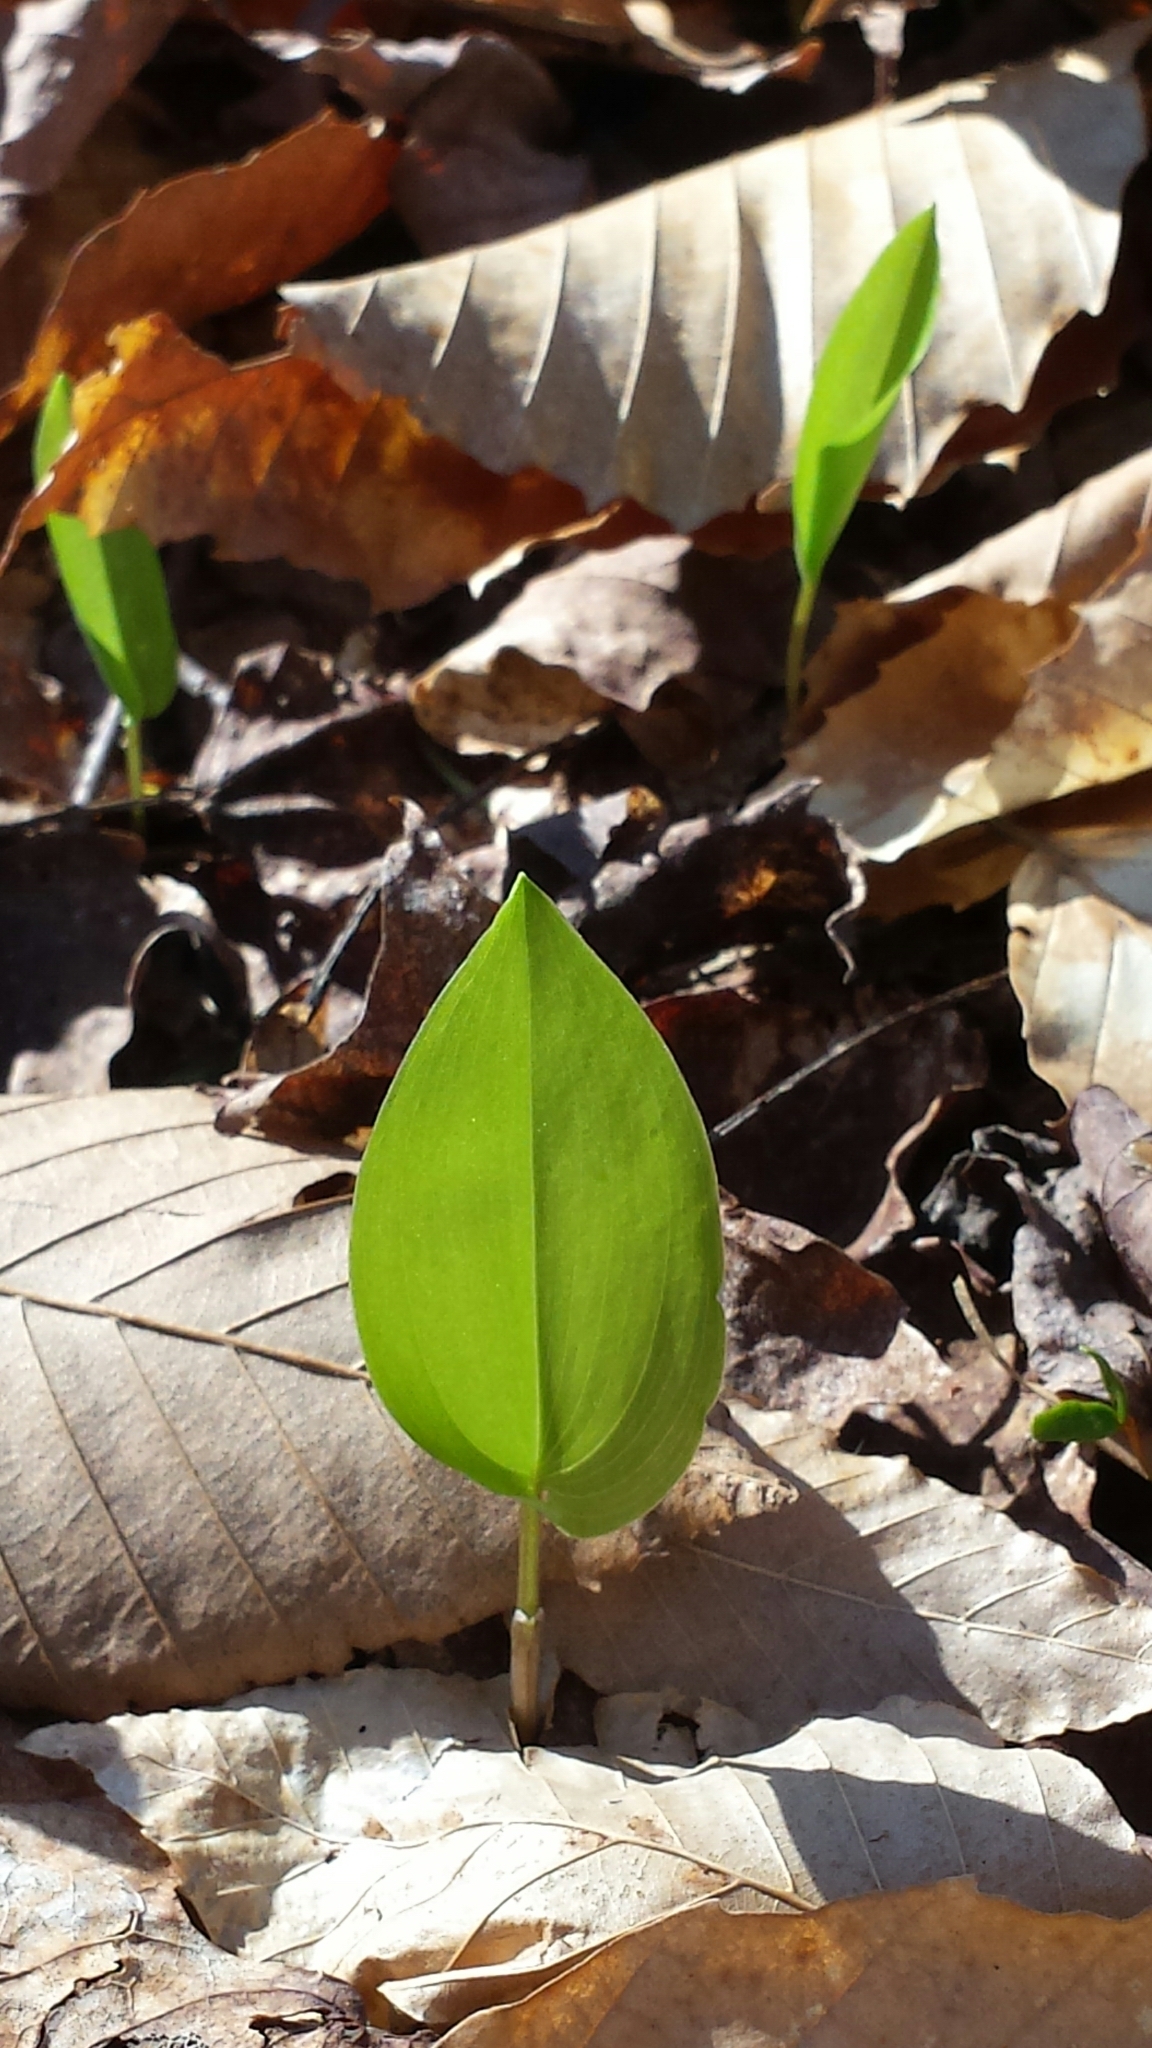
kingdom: Plantae
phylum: Tracheophyta
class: Liliopsida
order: Asparagales
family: Asparagaceae
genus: Maianthemum
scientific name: Maianthemum canadense
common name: False lily-of-the-valley
